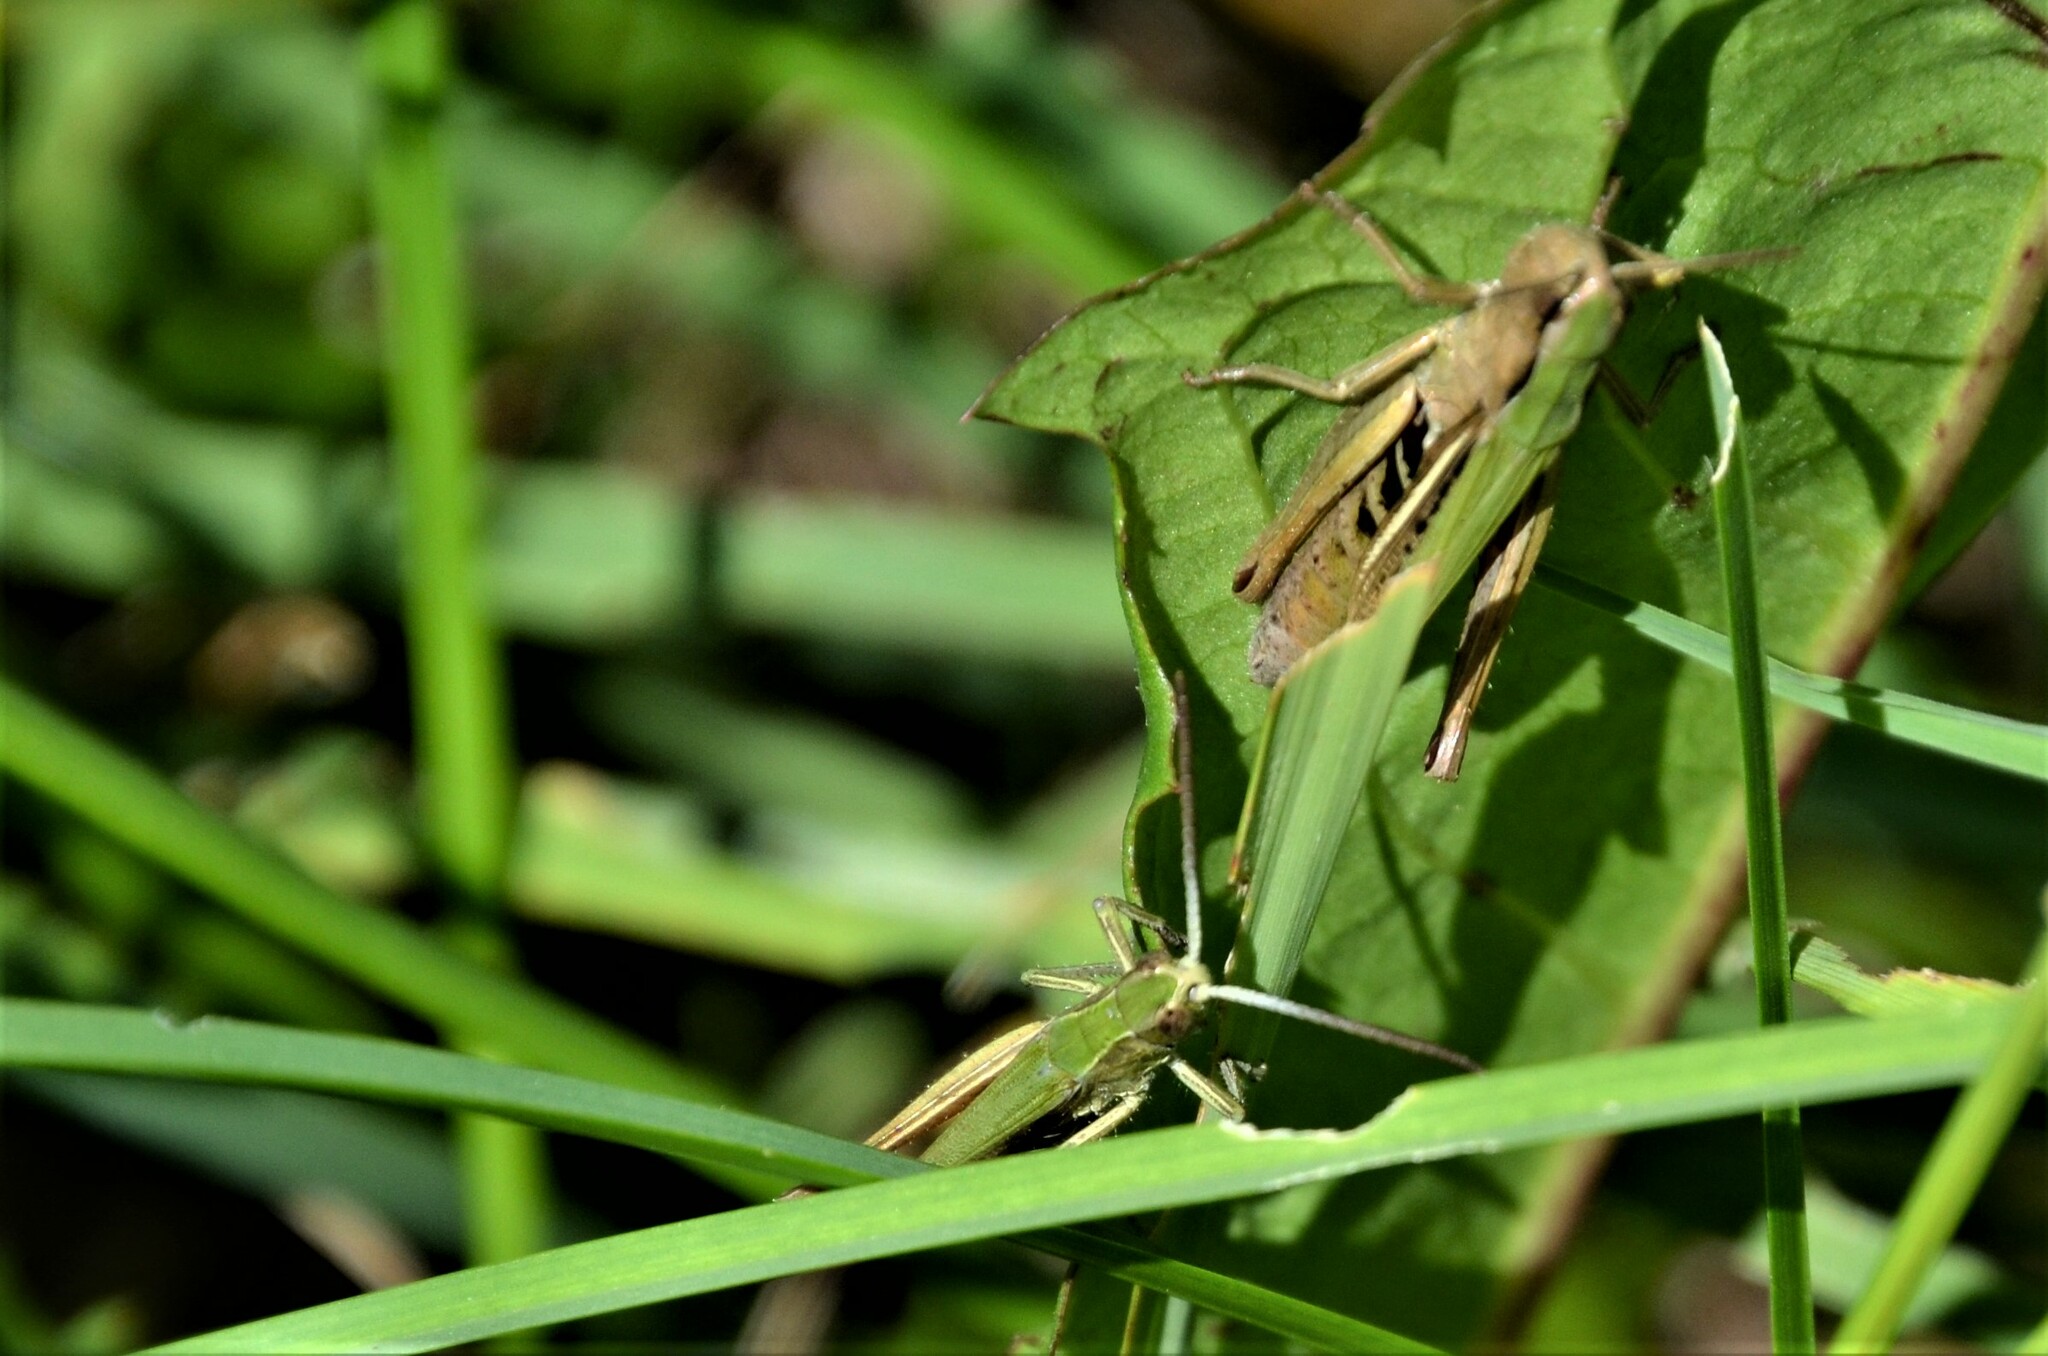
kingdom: Animalia
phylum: Arthropoda
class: Insecta
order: Orthoptera
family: Acrididae
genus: Chorthippus
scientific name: Chorthippus dorsatus
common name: Steppe grasshopper
